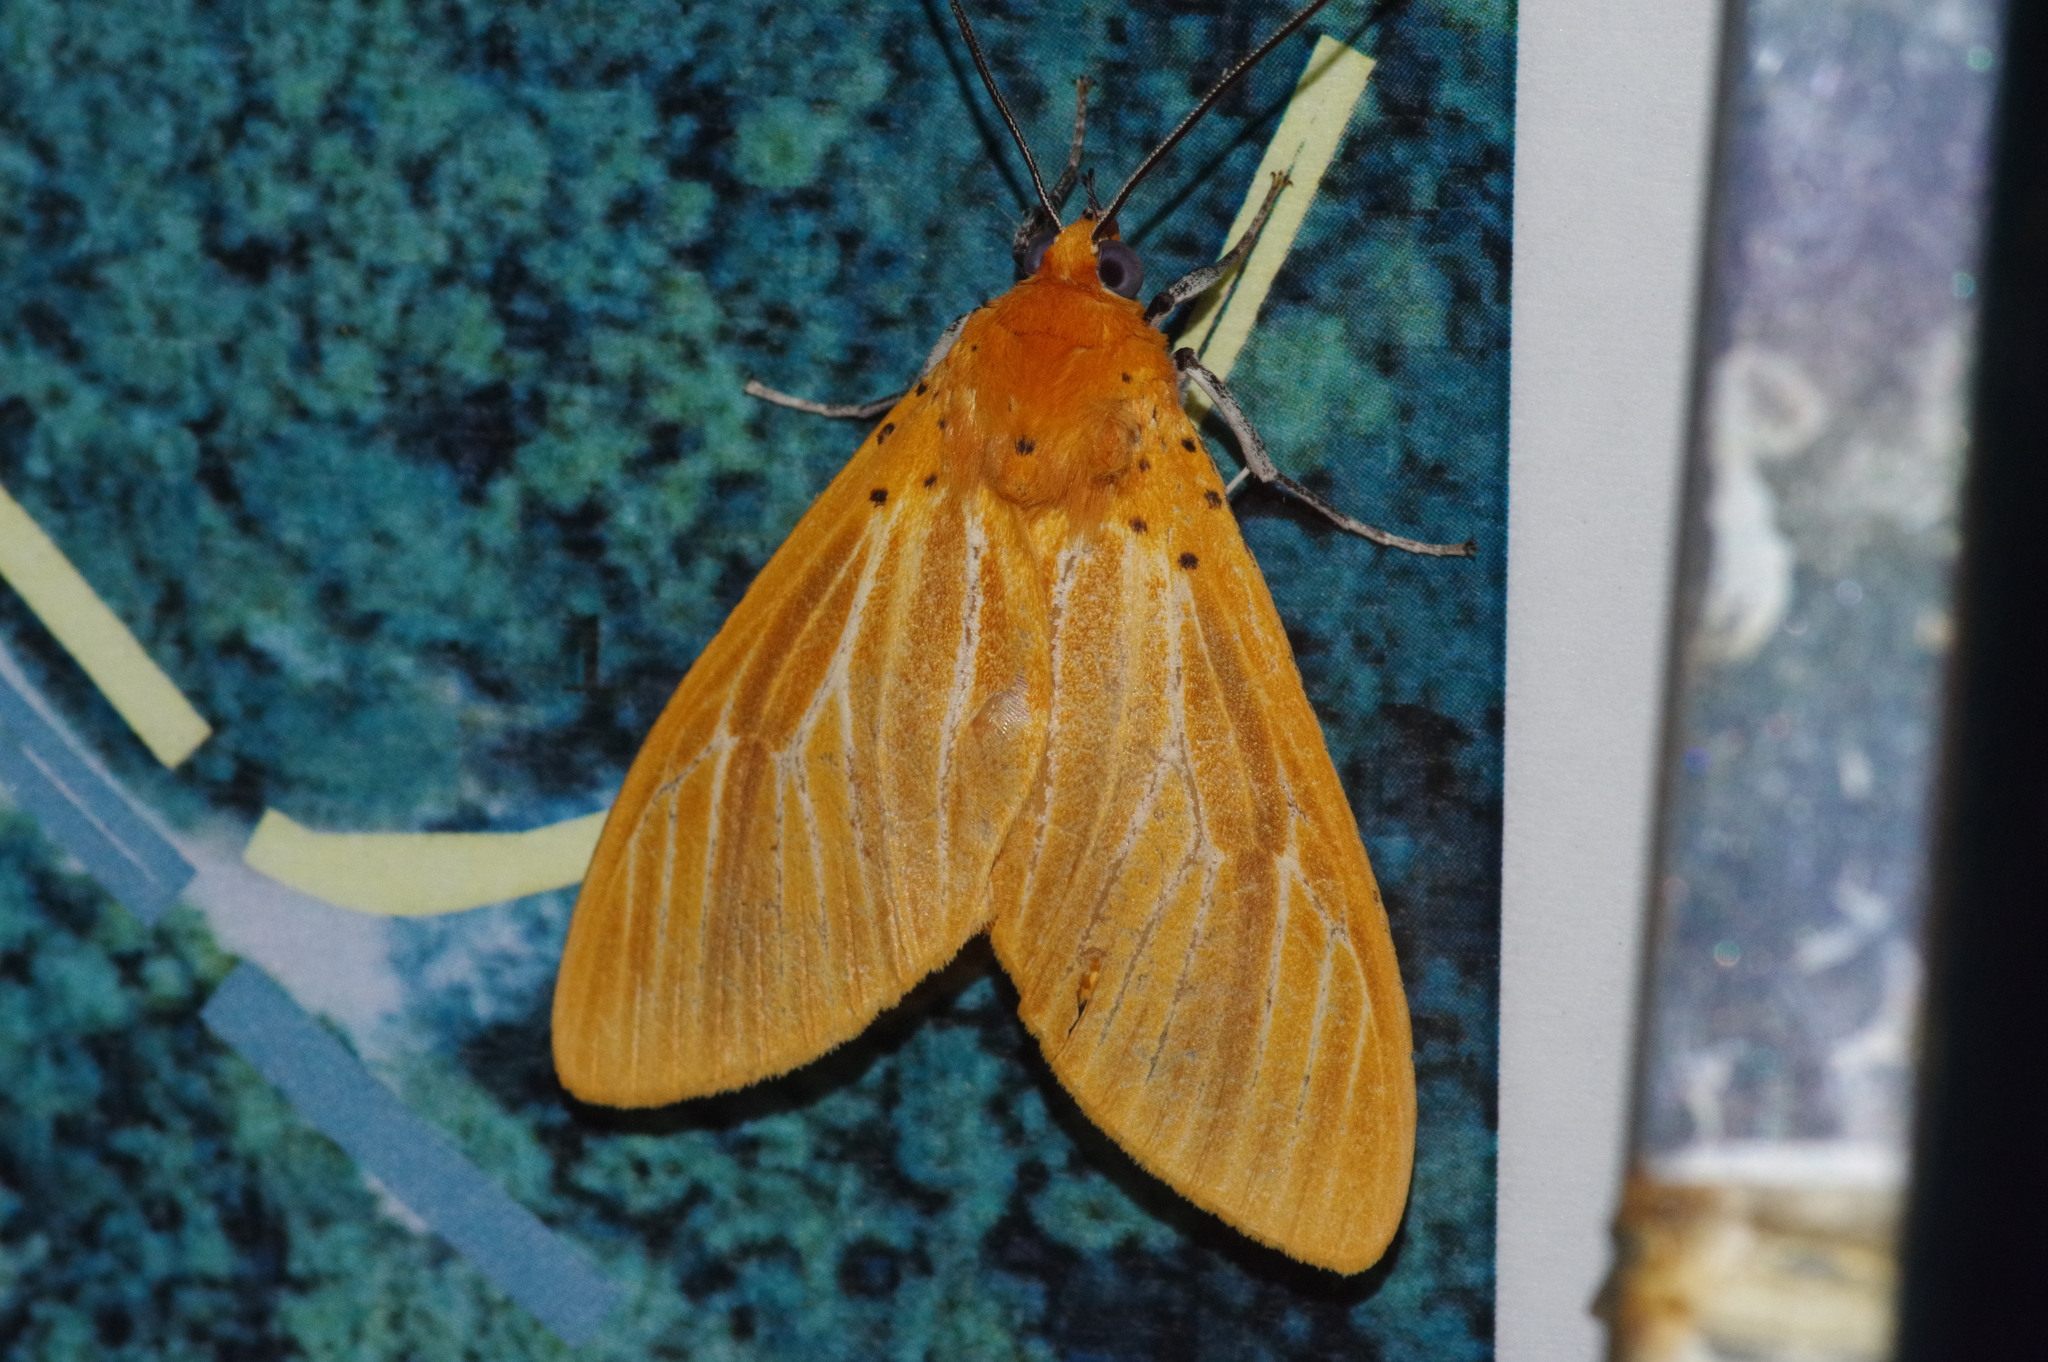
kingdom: Animalia
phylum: Arthropoda
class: Insecta
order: Lepidoptera
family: Erebidae
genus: Asota
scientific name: Asota egens
